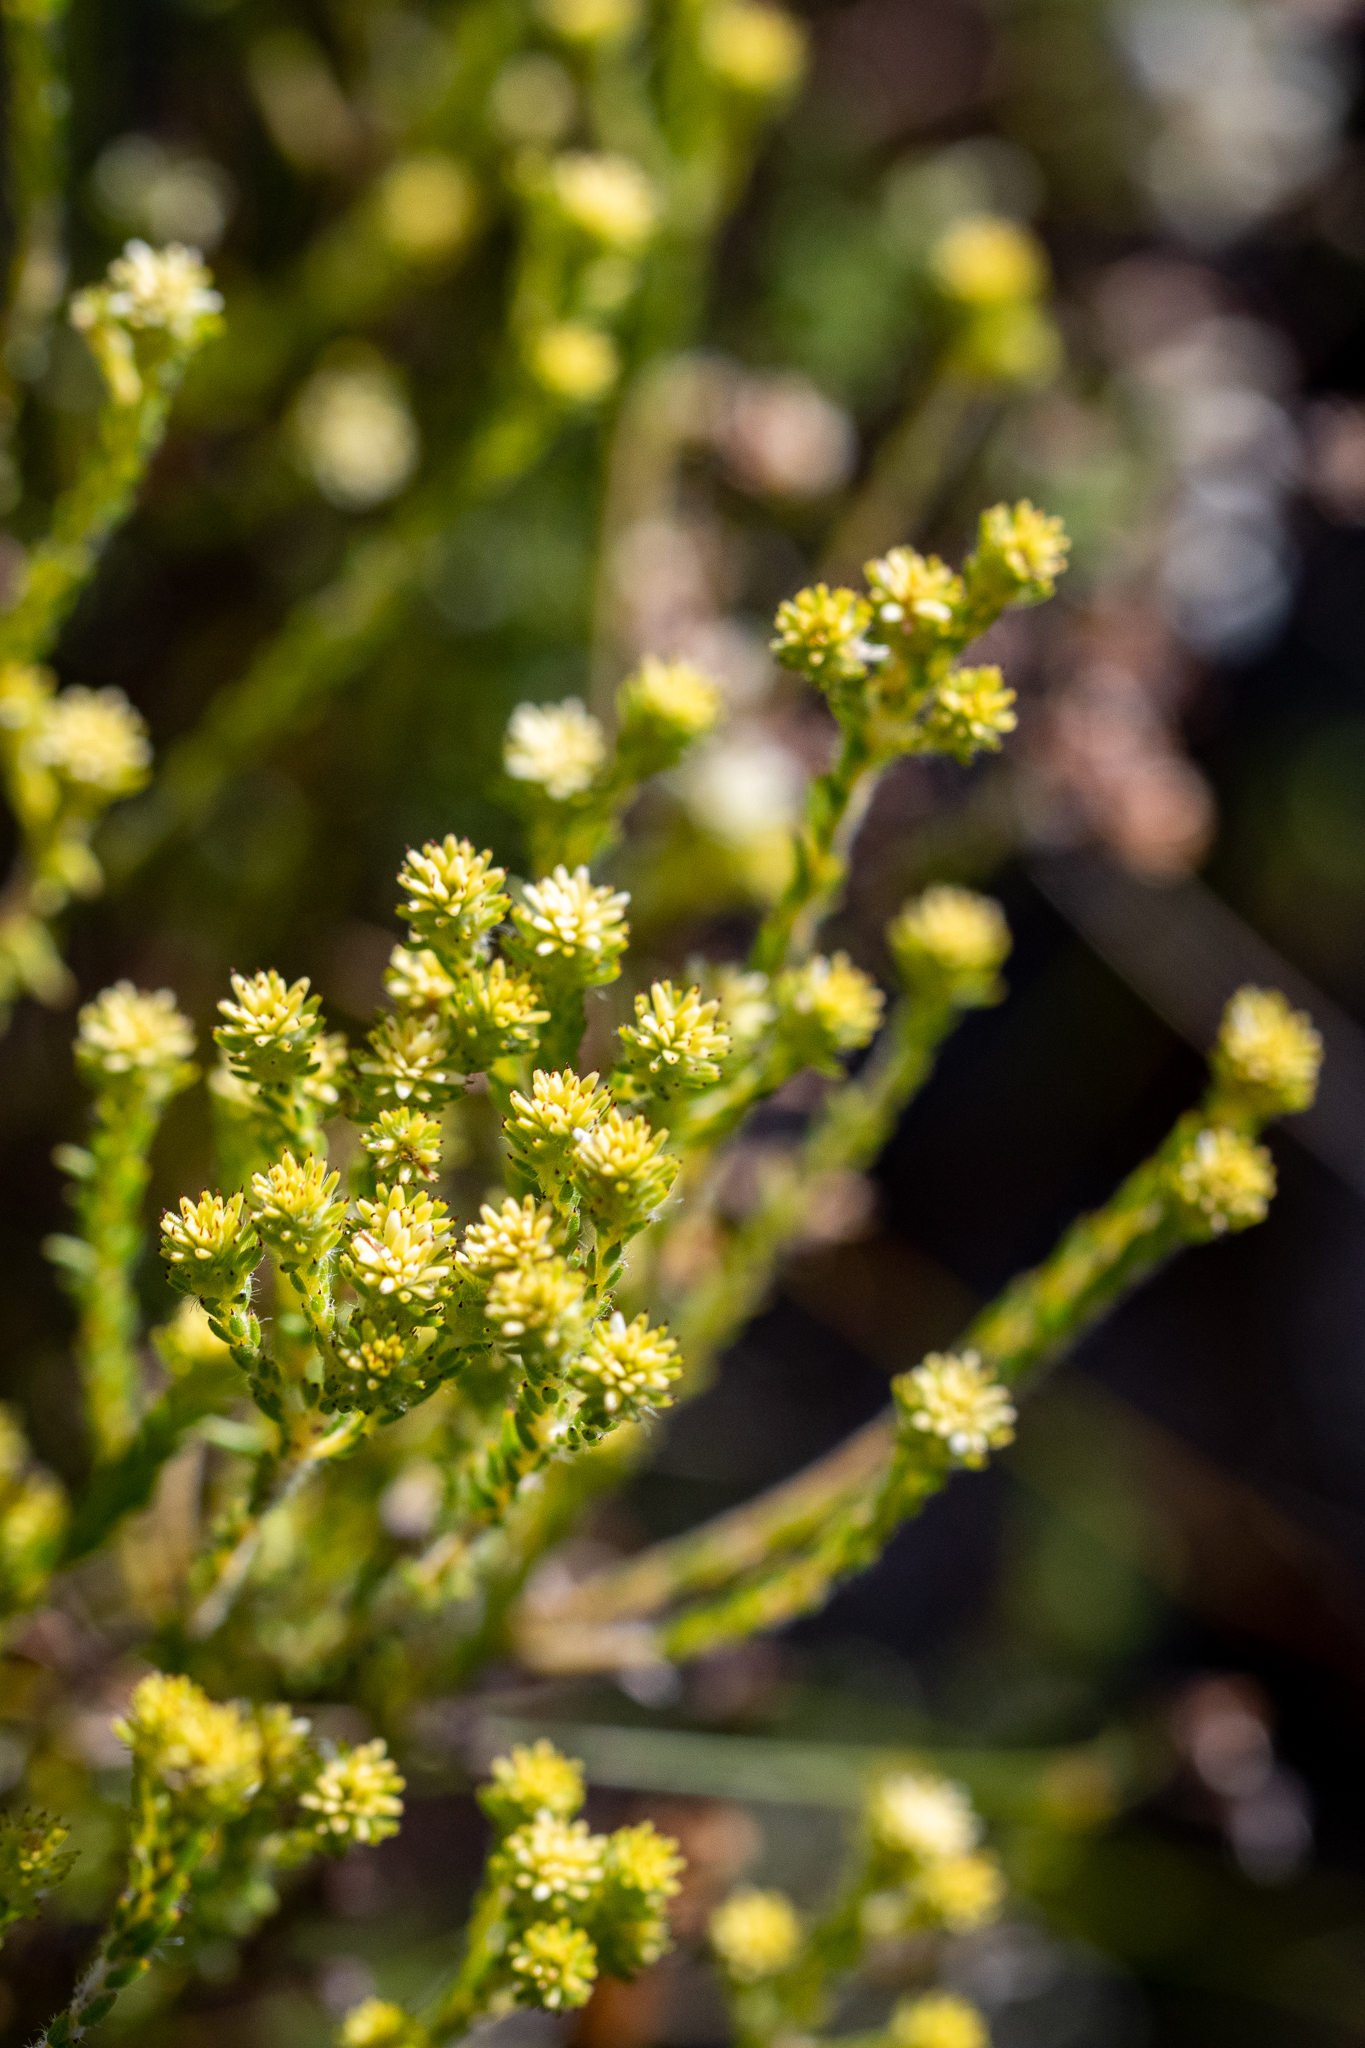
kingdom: Plantae
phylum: Tracheophyta
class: Magnoliopsida
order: Bruniales
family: Bruniaceae
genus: Staavia
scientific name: Staavia radiata
